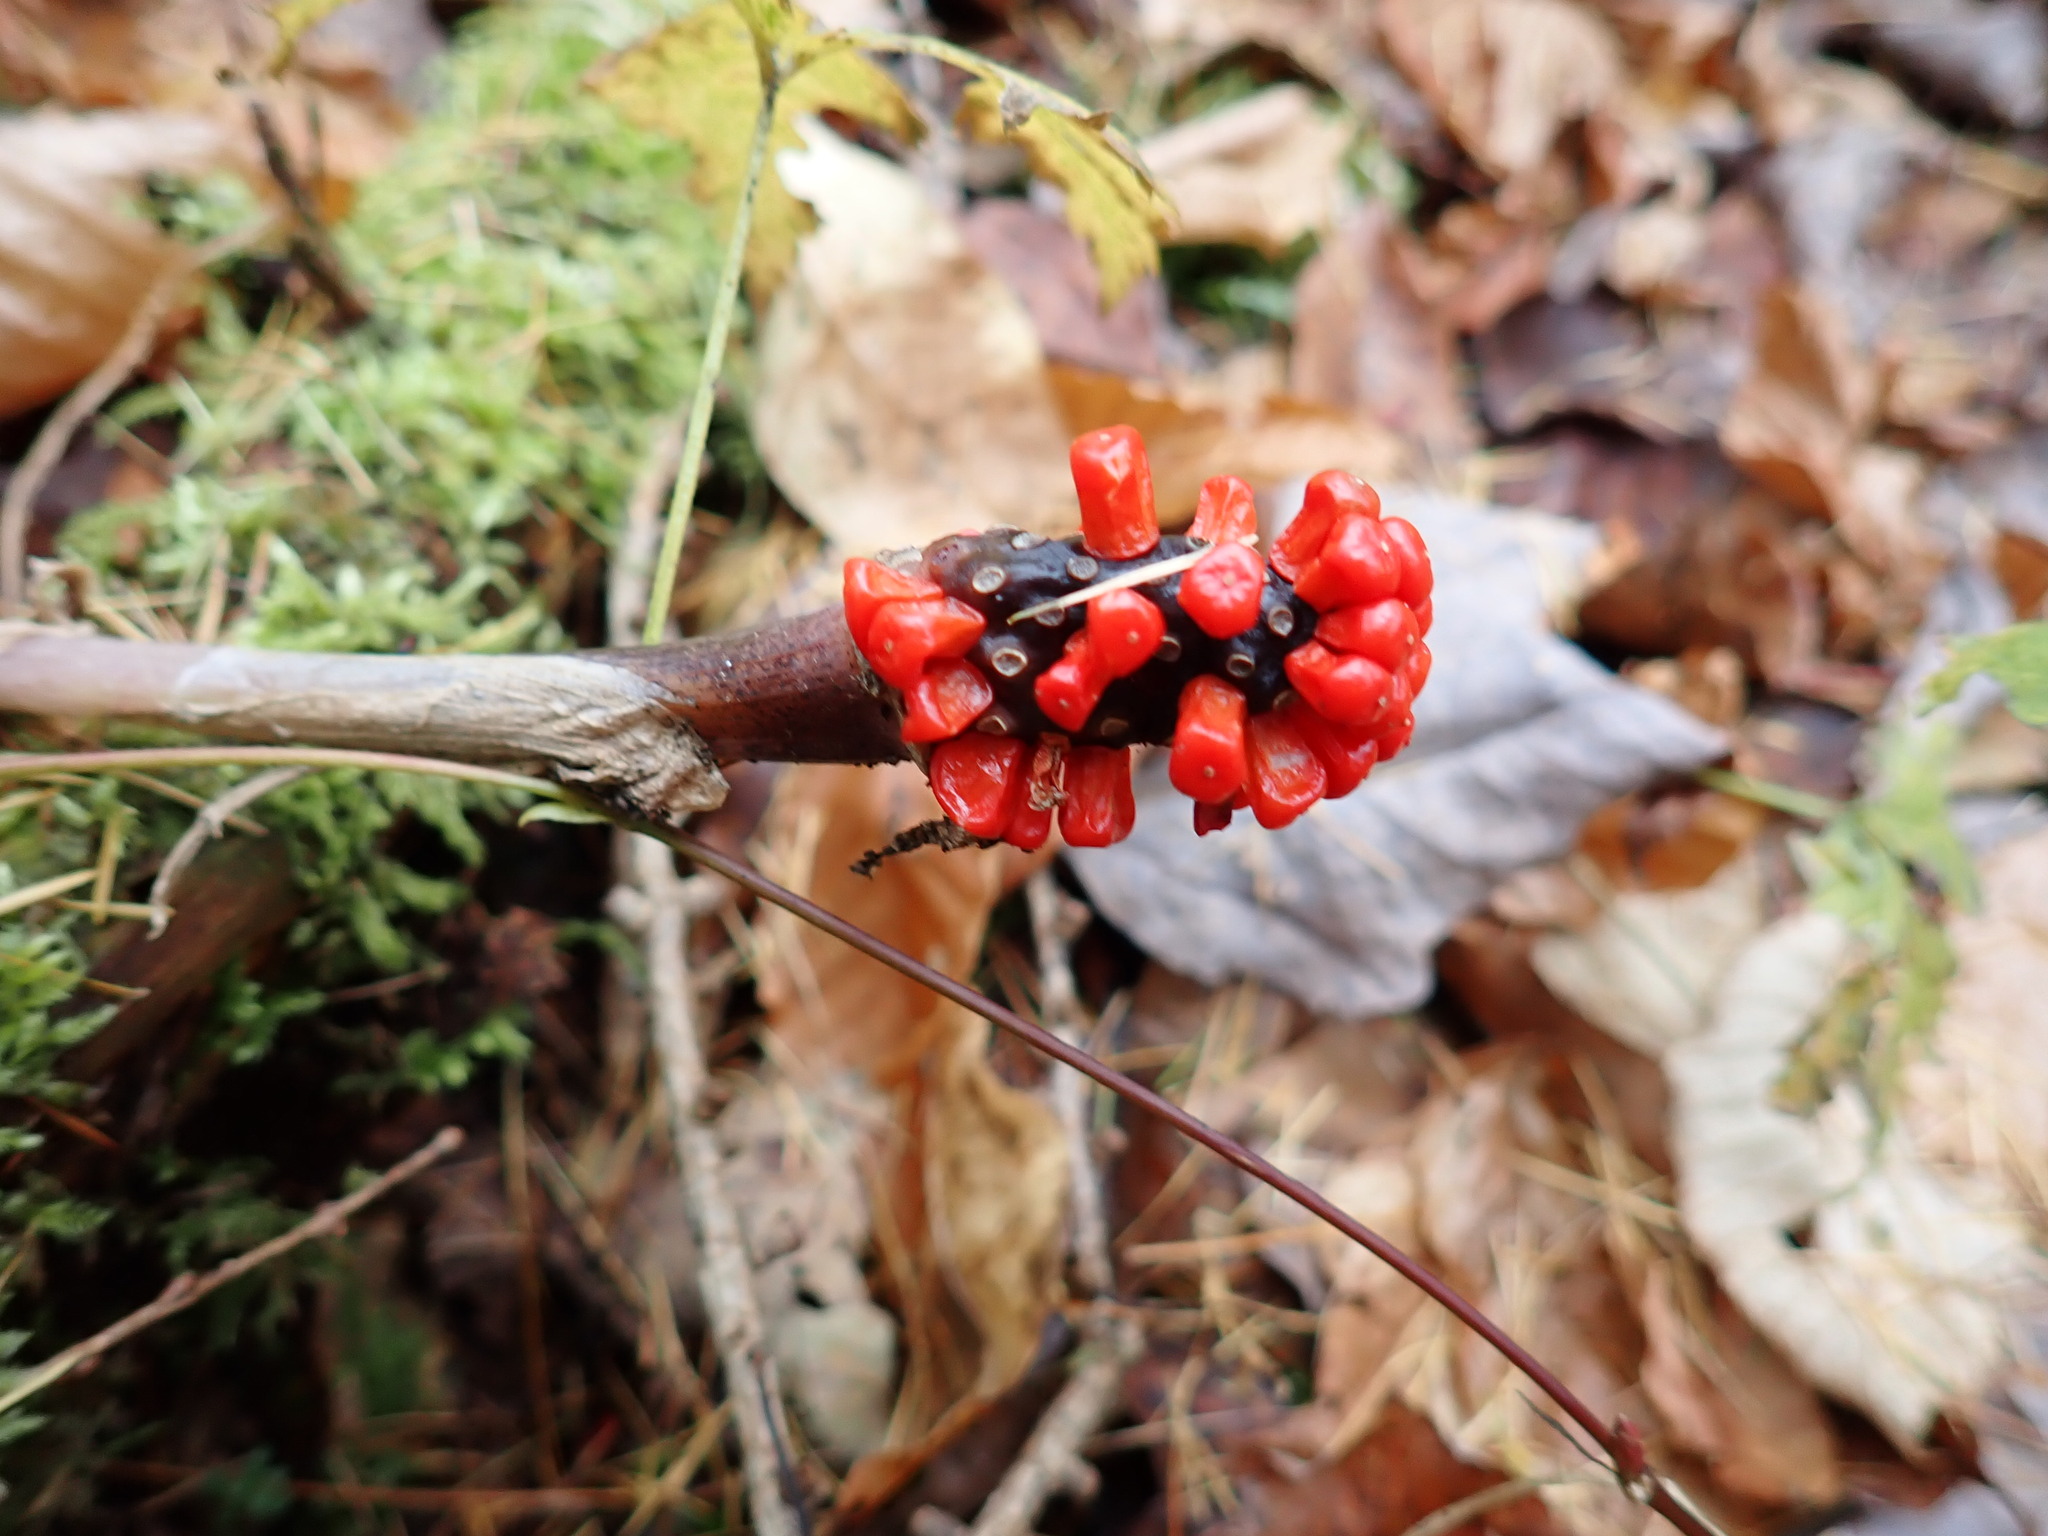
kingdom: Plantae
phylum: Tracheophyta
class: Liliopsida
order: Alismatales
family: Araceae
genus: Arisaema
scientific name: Arisaema triphyllum
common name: Jack-in-the-pulpit
